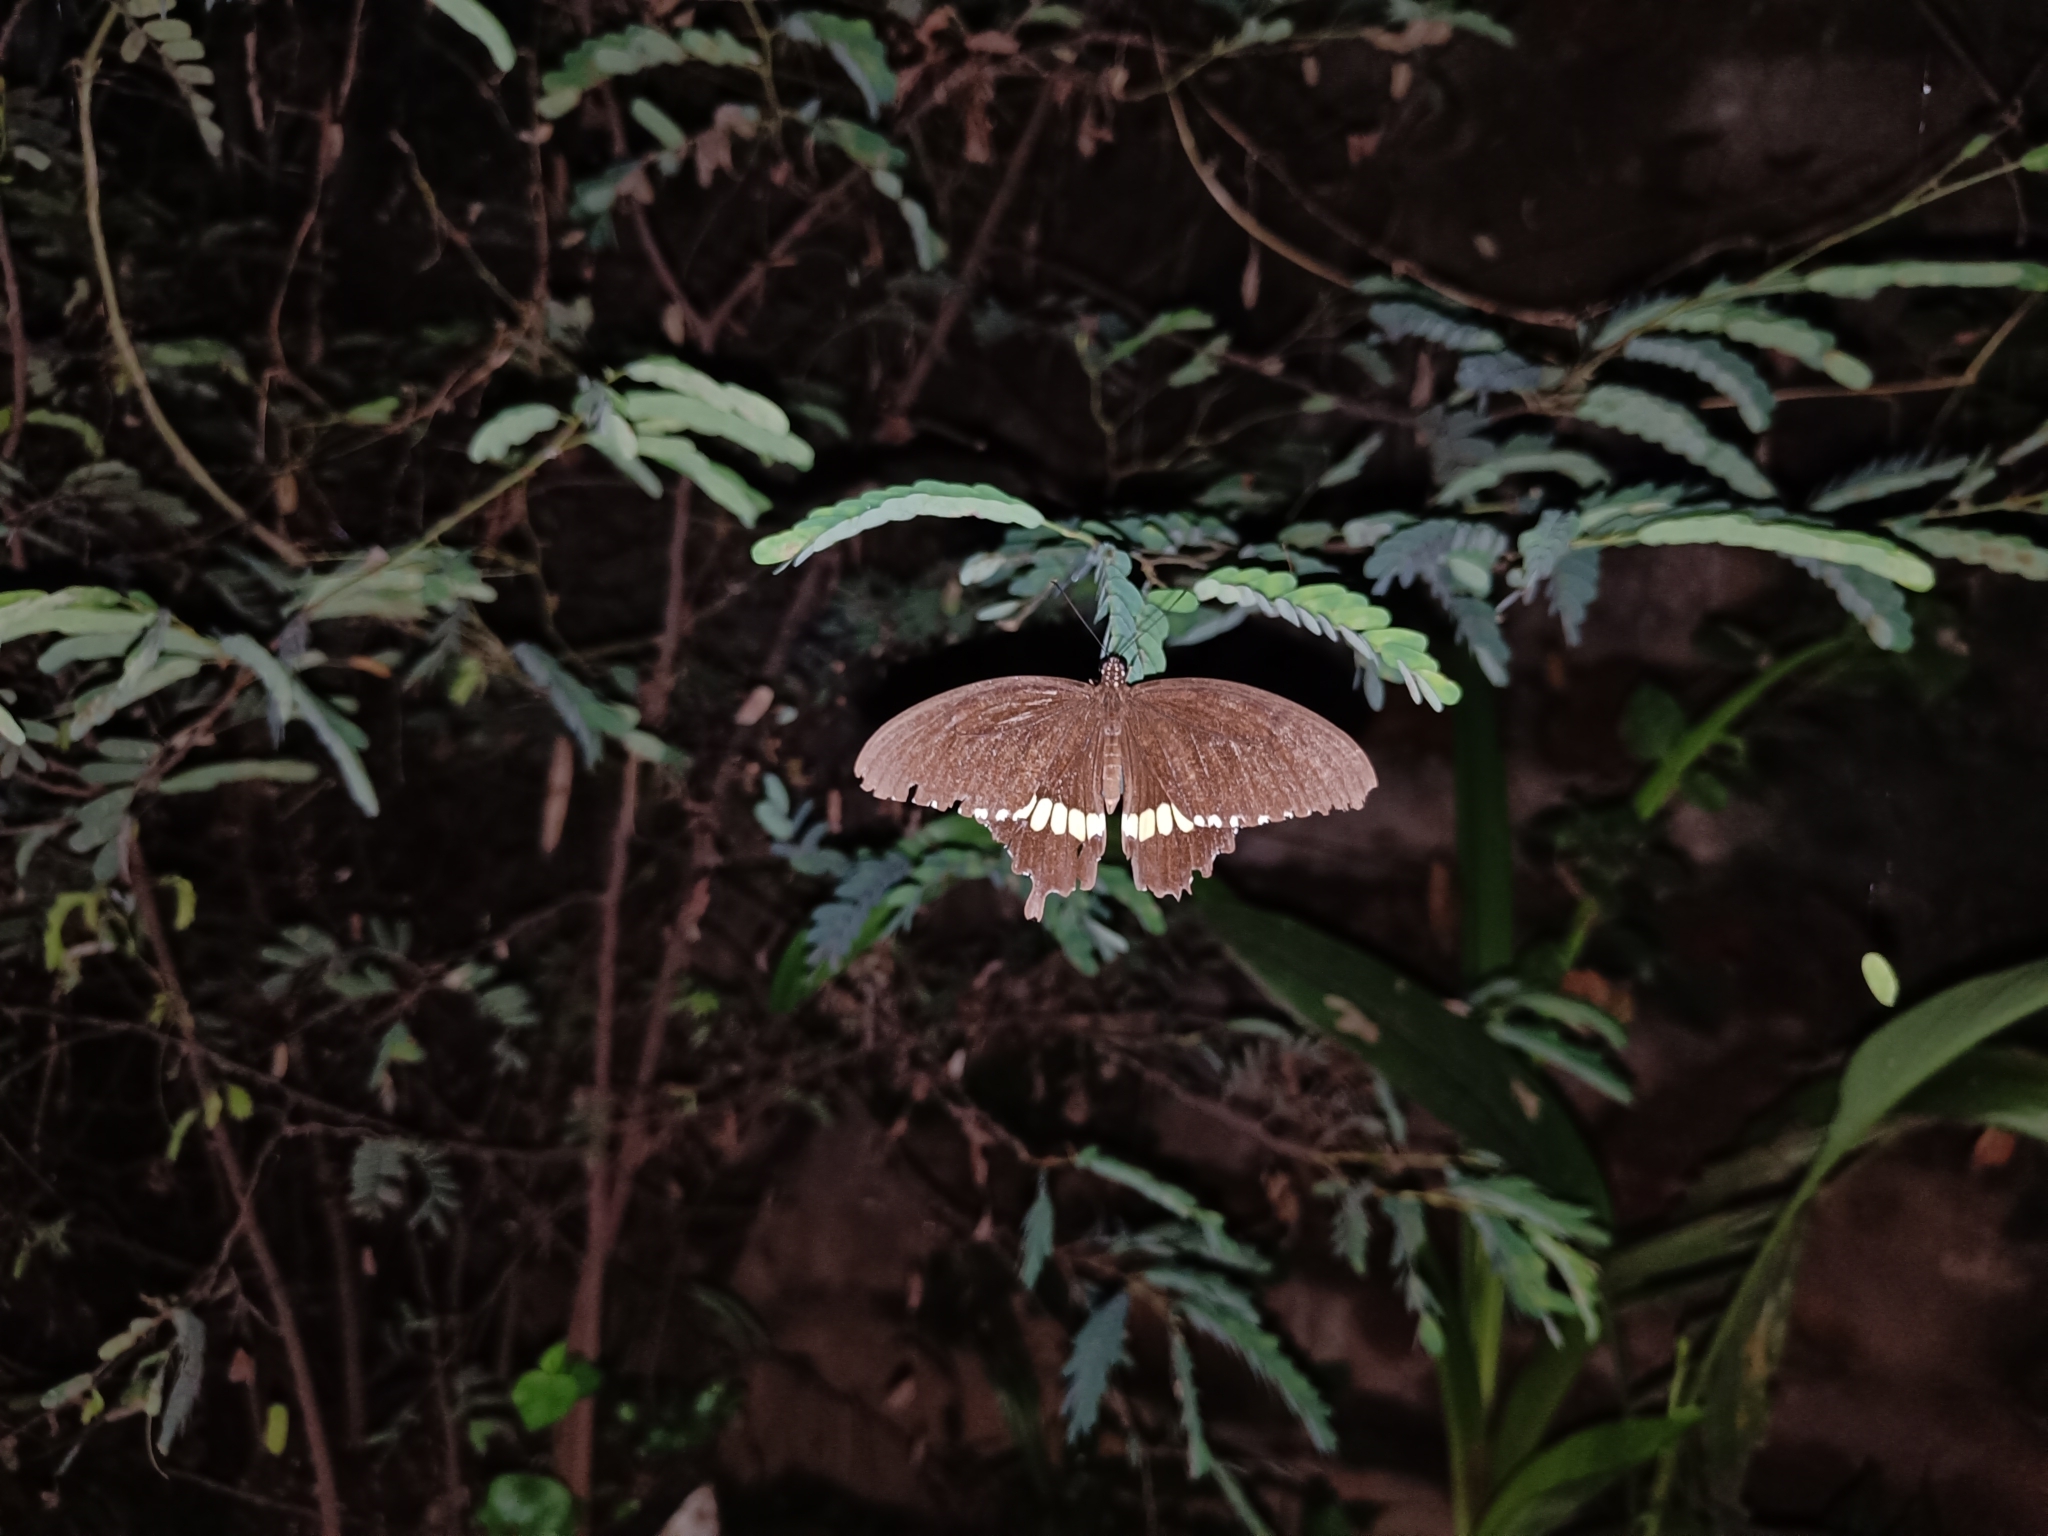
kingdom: Animalia
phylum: Arthropoda
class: Insecta
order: Lepidoptera
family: Papilionidae
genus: Papilio
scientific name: Papilio polytes
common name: Common mormon
